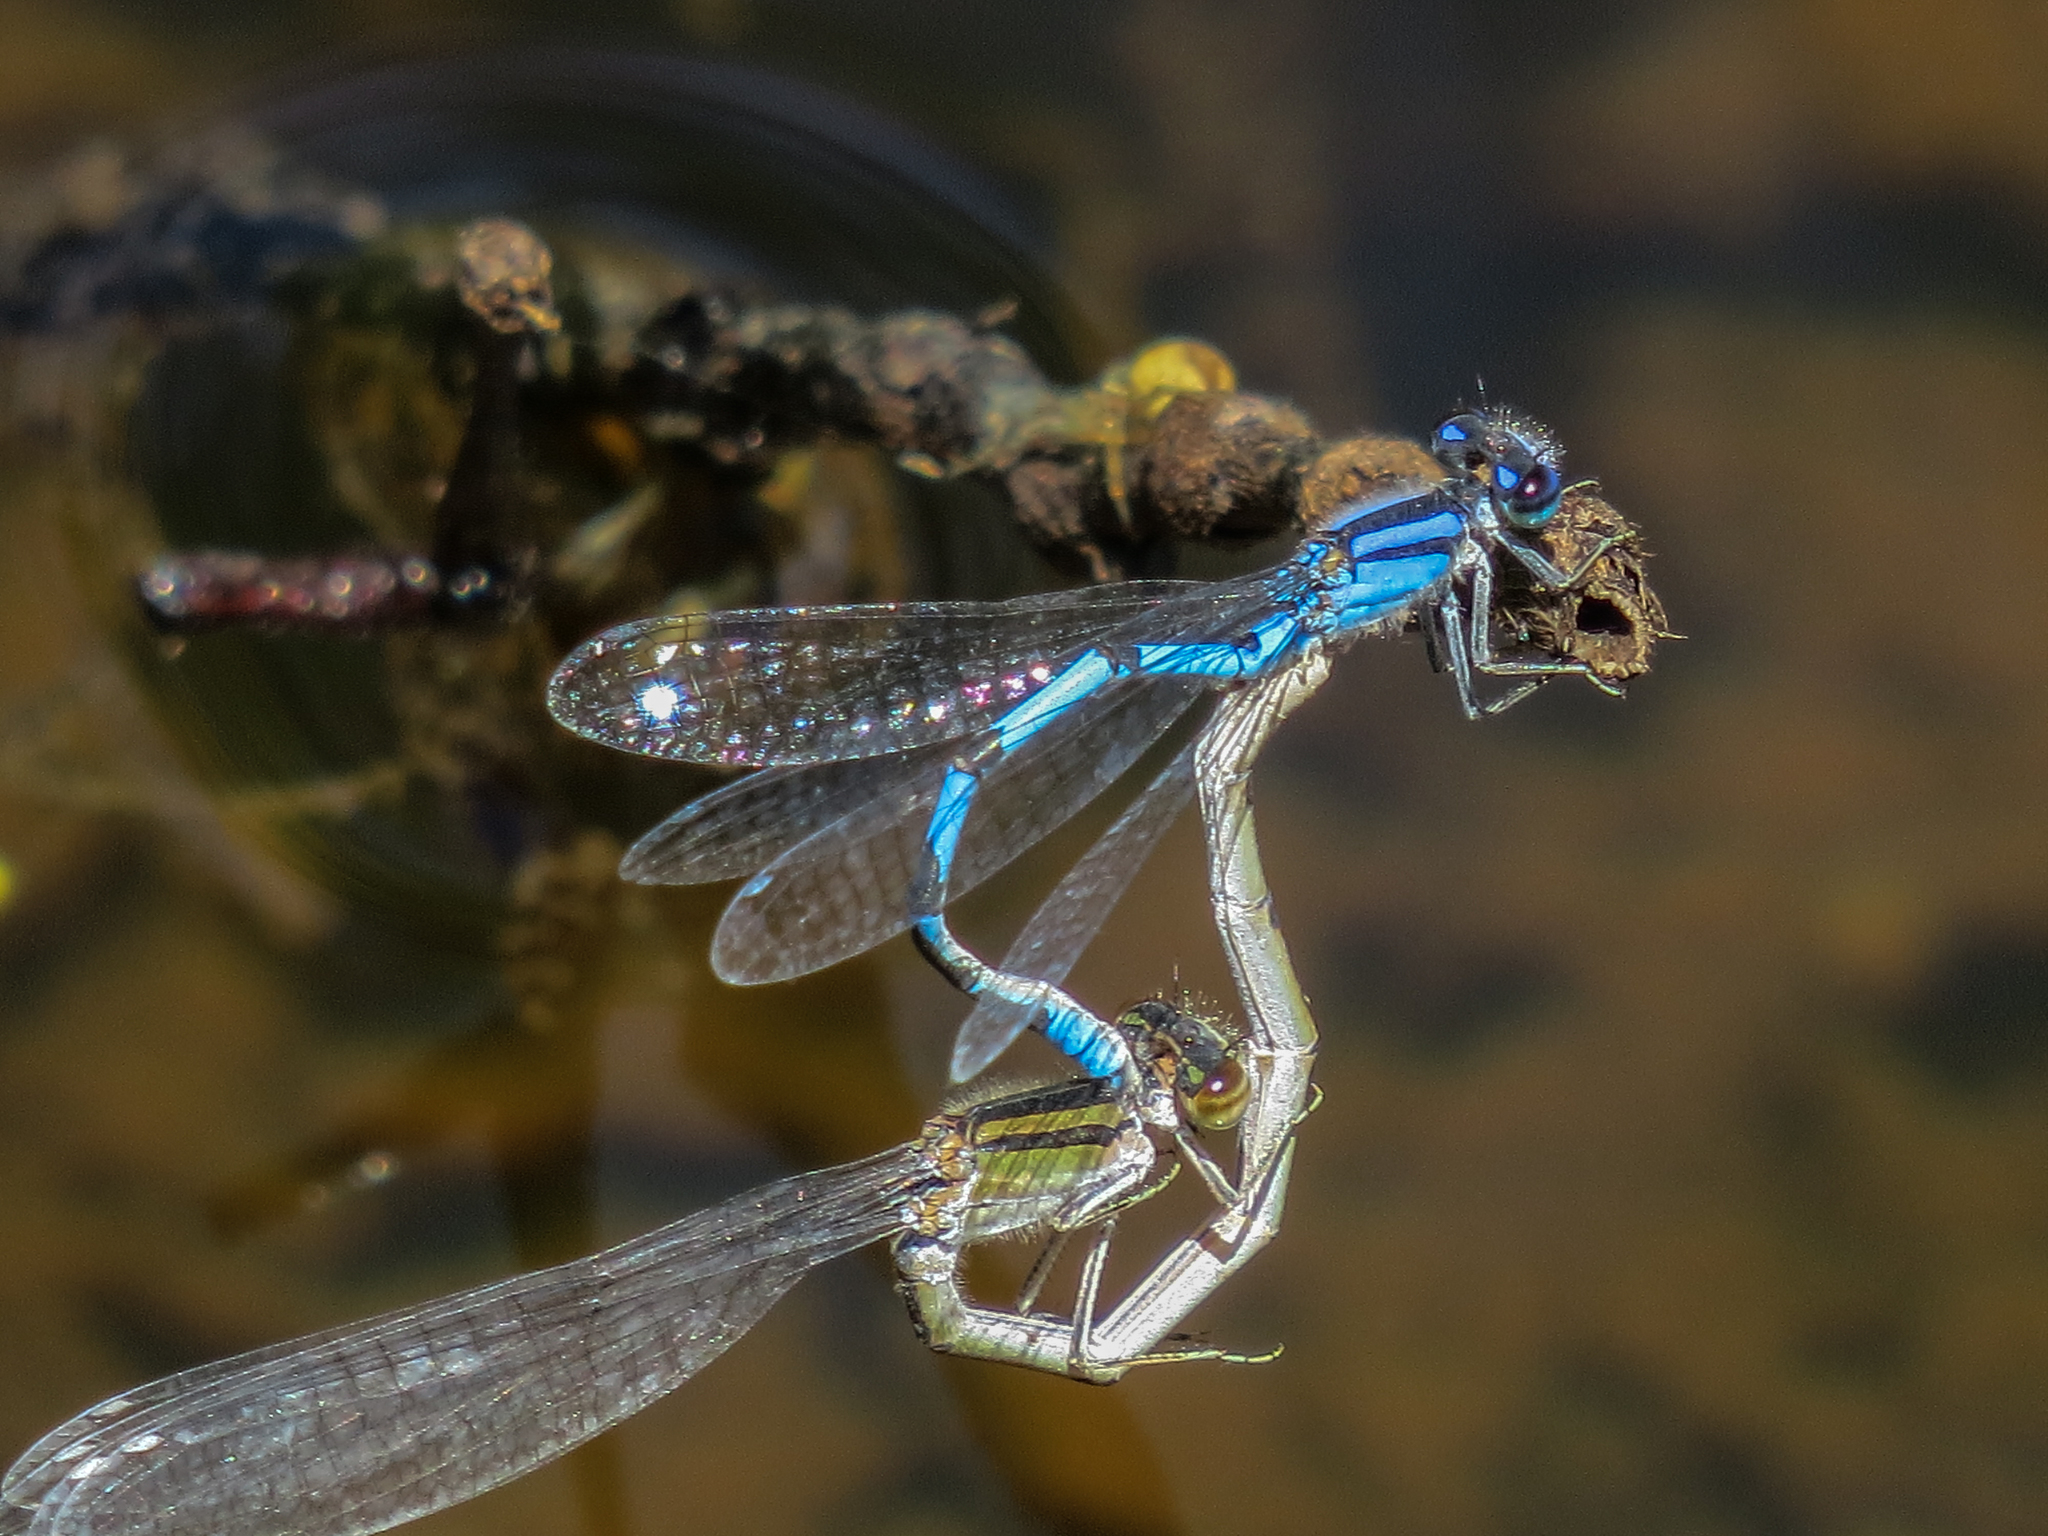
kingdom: Animalia
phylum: Arthropoda
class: Insecta
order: Odonata
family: Coenagrionidae
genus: Enallagma
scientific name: Enallagma civile
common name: Damselfly
